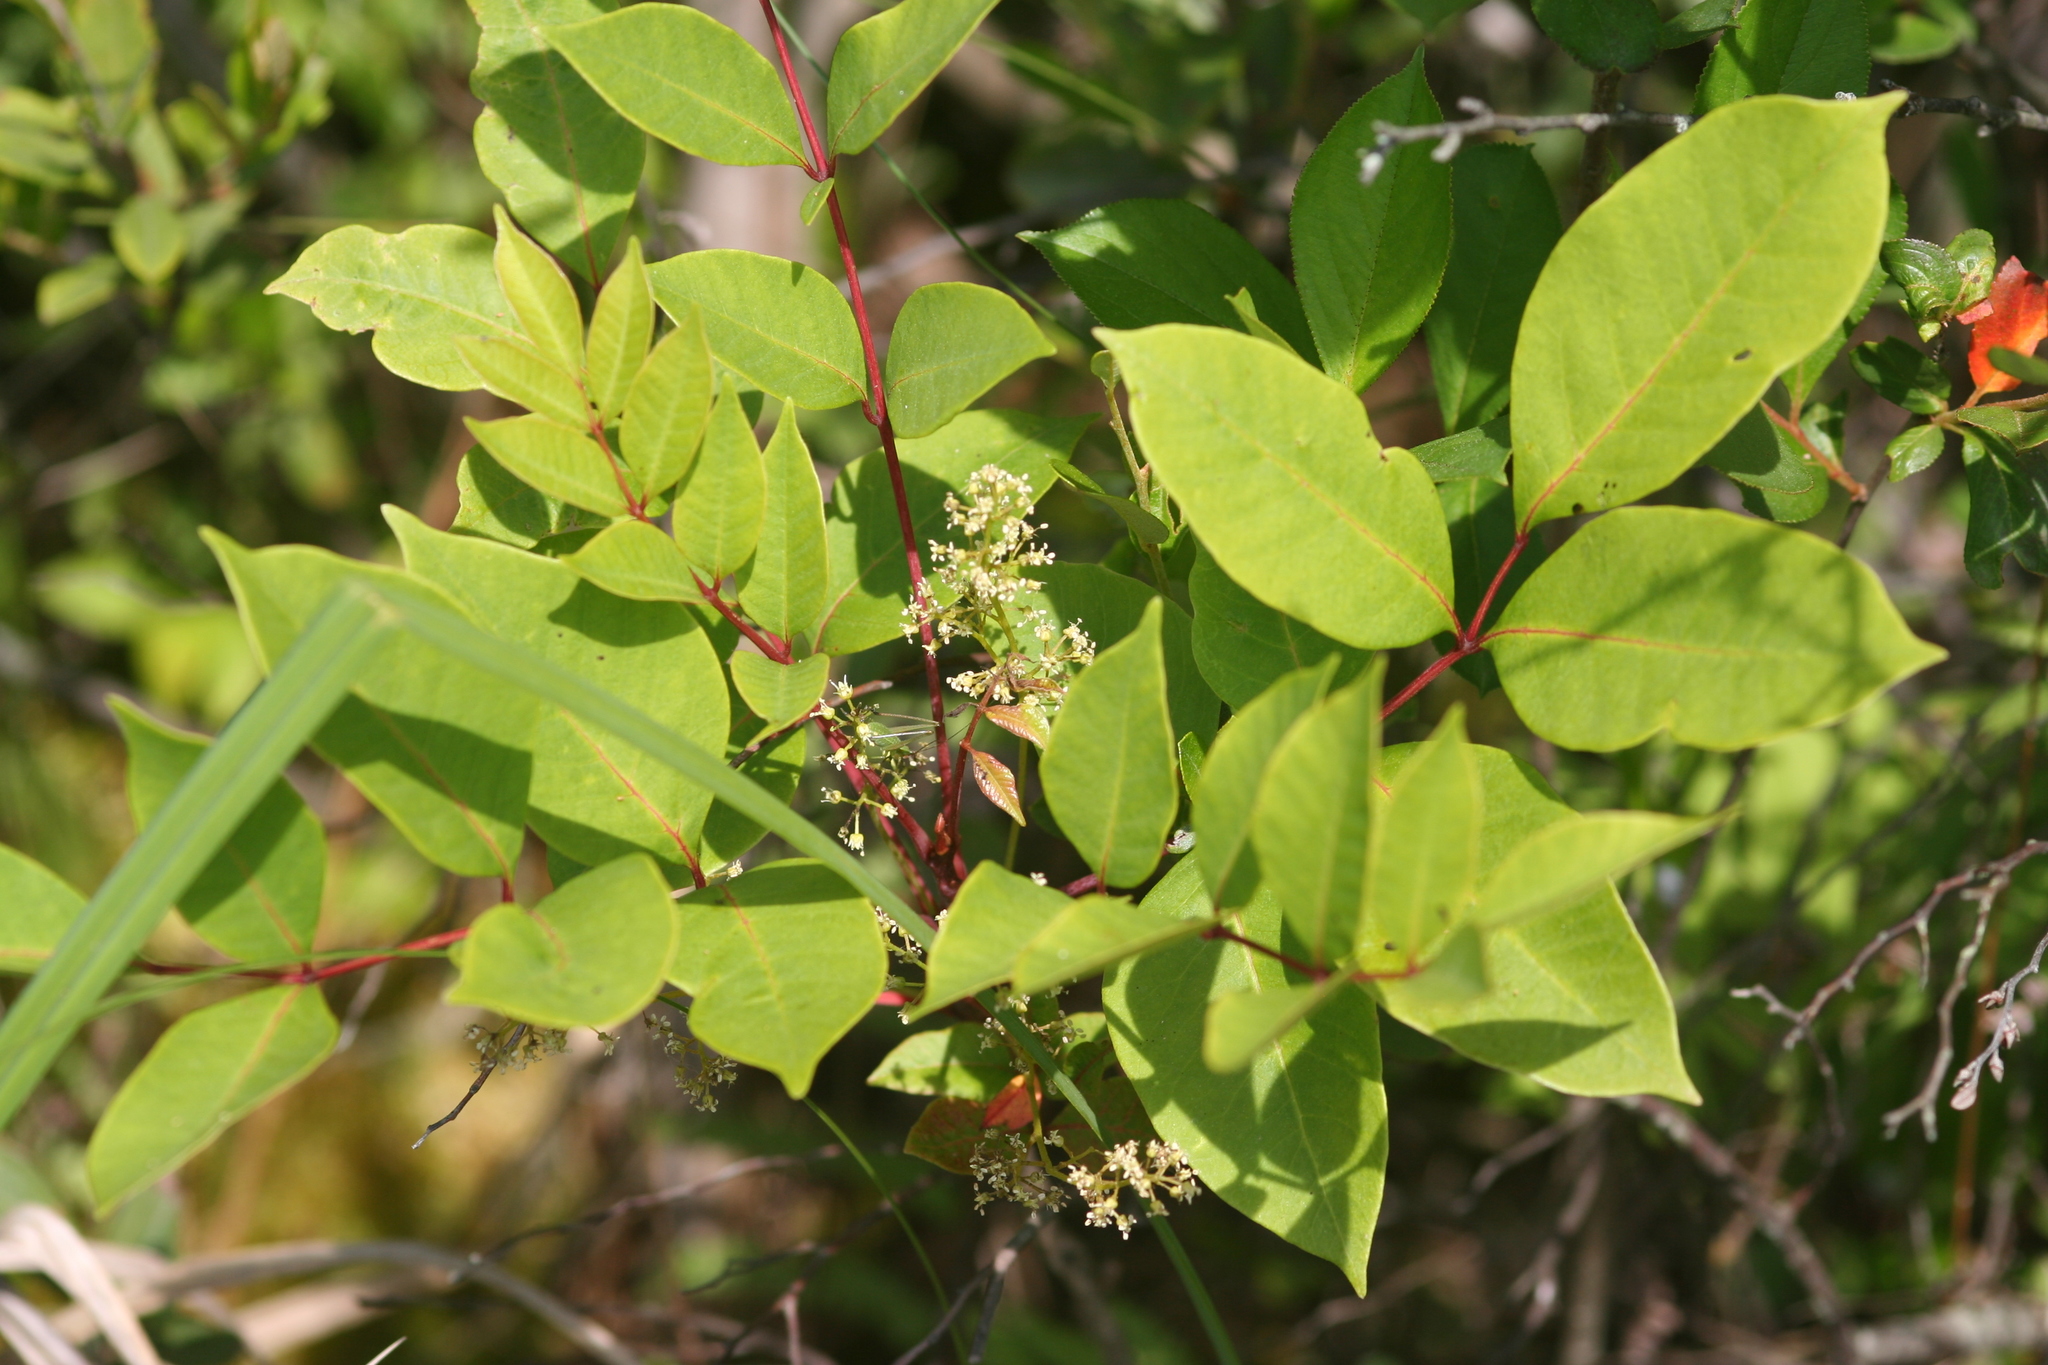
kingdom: Plantae
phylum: Tracheophyta
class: Magnoliopsida
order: Sapindales
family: Anacardiaceae
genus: Toxicodendron
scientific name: Toxicodendron vernix
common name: Poison sumac
